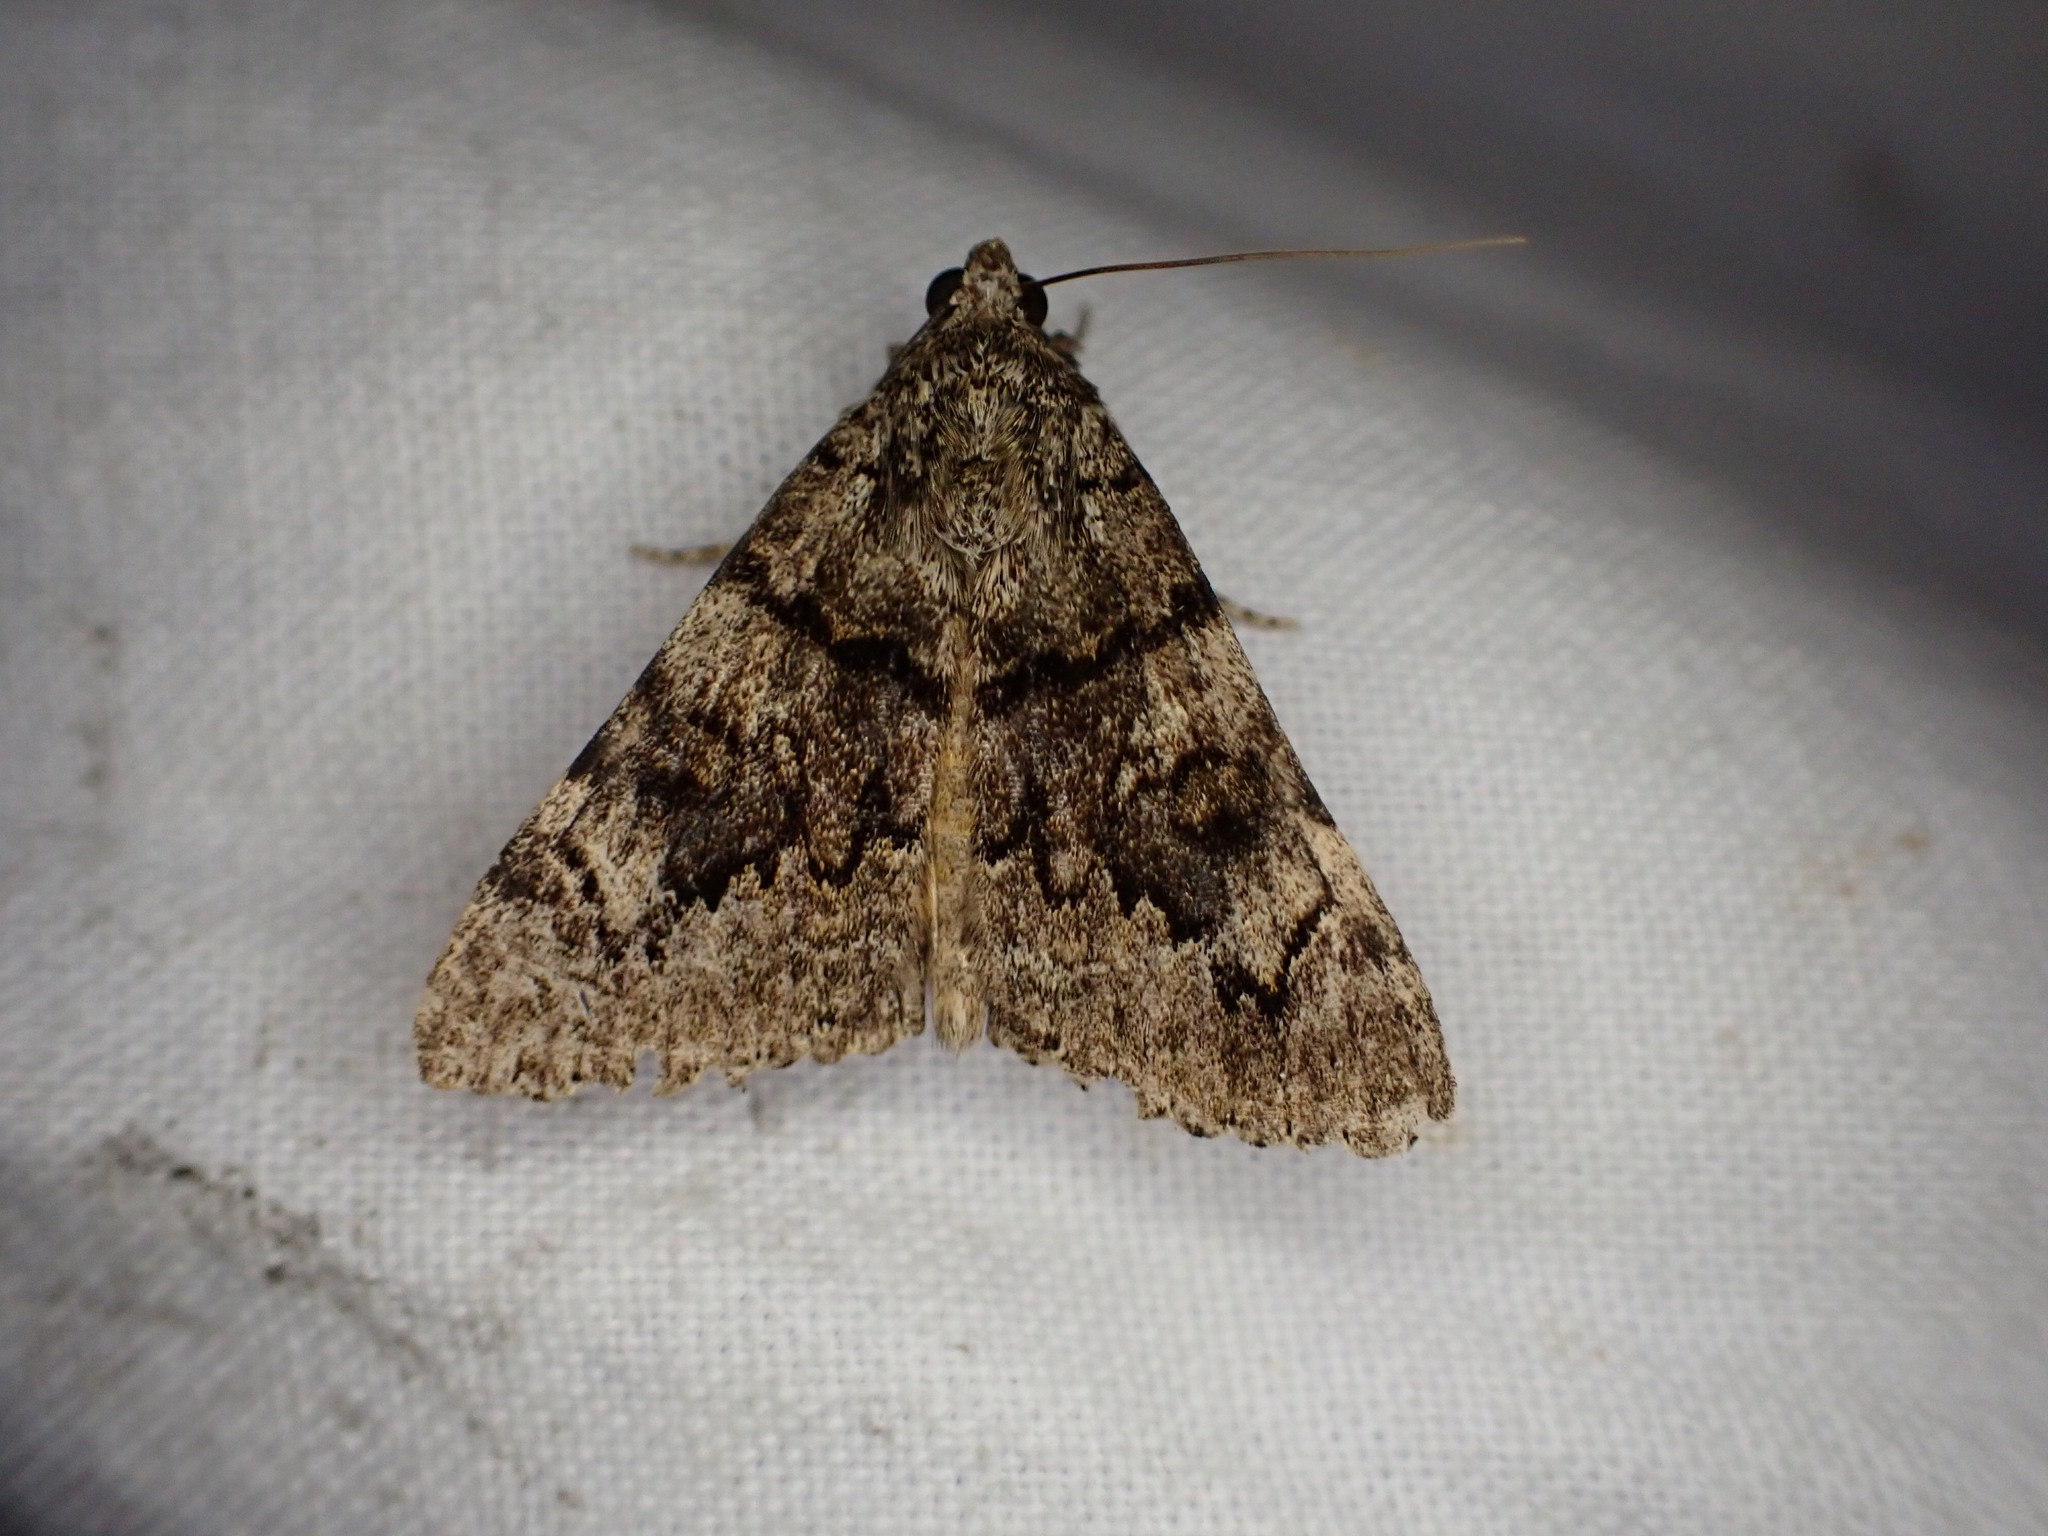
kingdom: Animalia
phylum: Arthropoda
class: Insecta
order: Lepidoptera
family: Erebidae
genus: Catocala
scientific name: Catocala nymphagoga
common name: Oak yellow underwing
